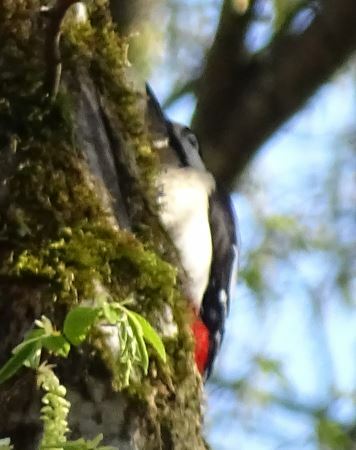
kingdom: Animalia
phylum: Chordata
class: Aves
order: Piciformes
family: Picidae
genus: Dendrocopos
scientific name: Dendrocopos major
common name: Great spotted woodpecker
